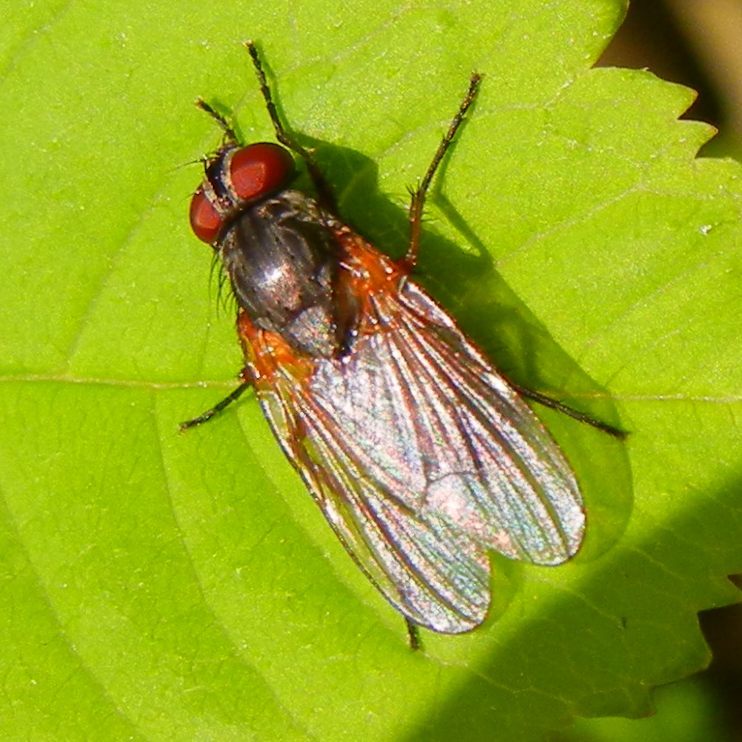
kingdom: Animalia
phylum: Arthropoda
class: Insecta
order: Diptera
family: Fanniidae
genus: Fannia
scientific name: Fannia lustrator
